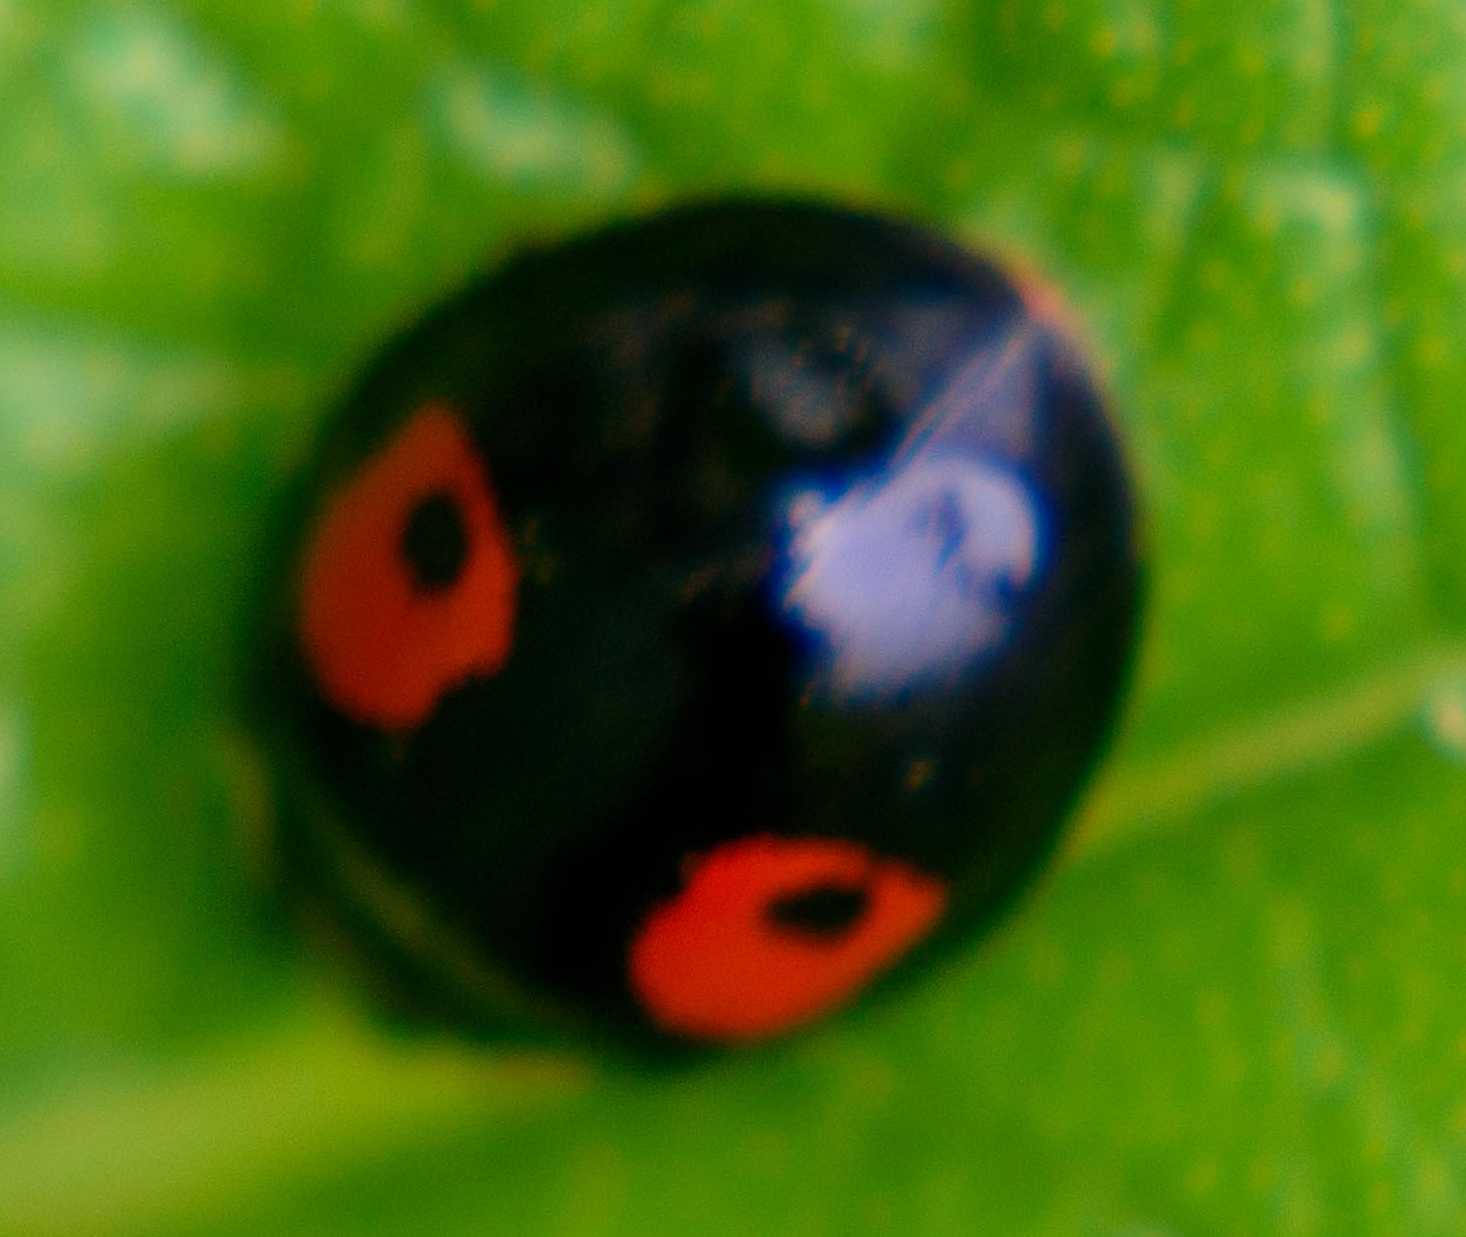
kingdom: Animalia
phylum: Arthropoda
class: Insecta
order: Coleoptera
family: Coccinellidae
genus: Harmonia
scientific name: Harmonia axyridis
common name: Harlequin ladybird
